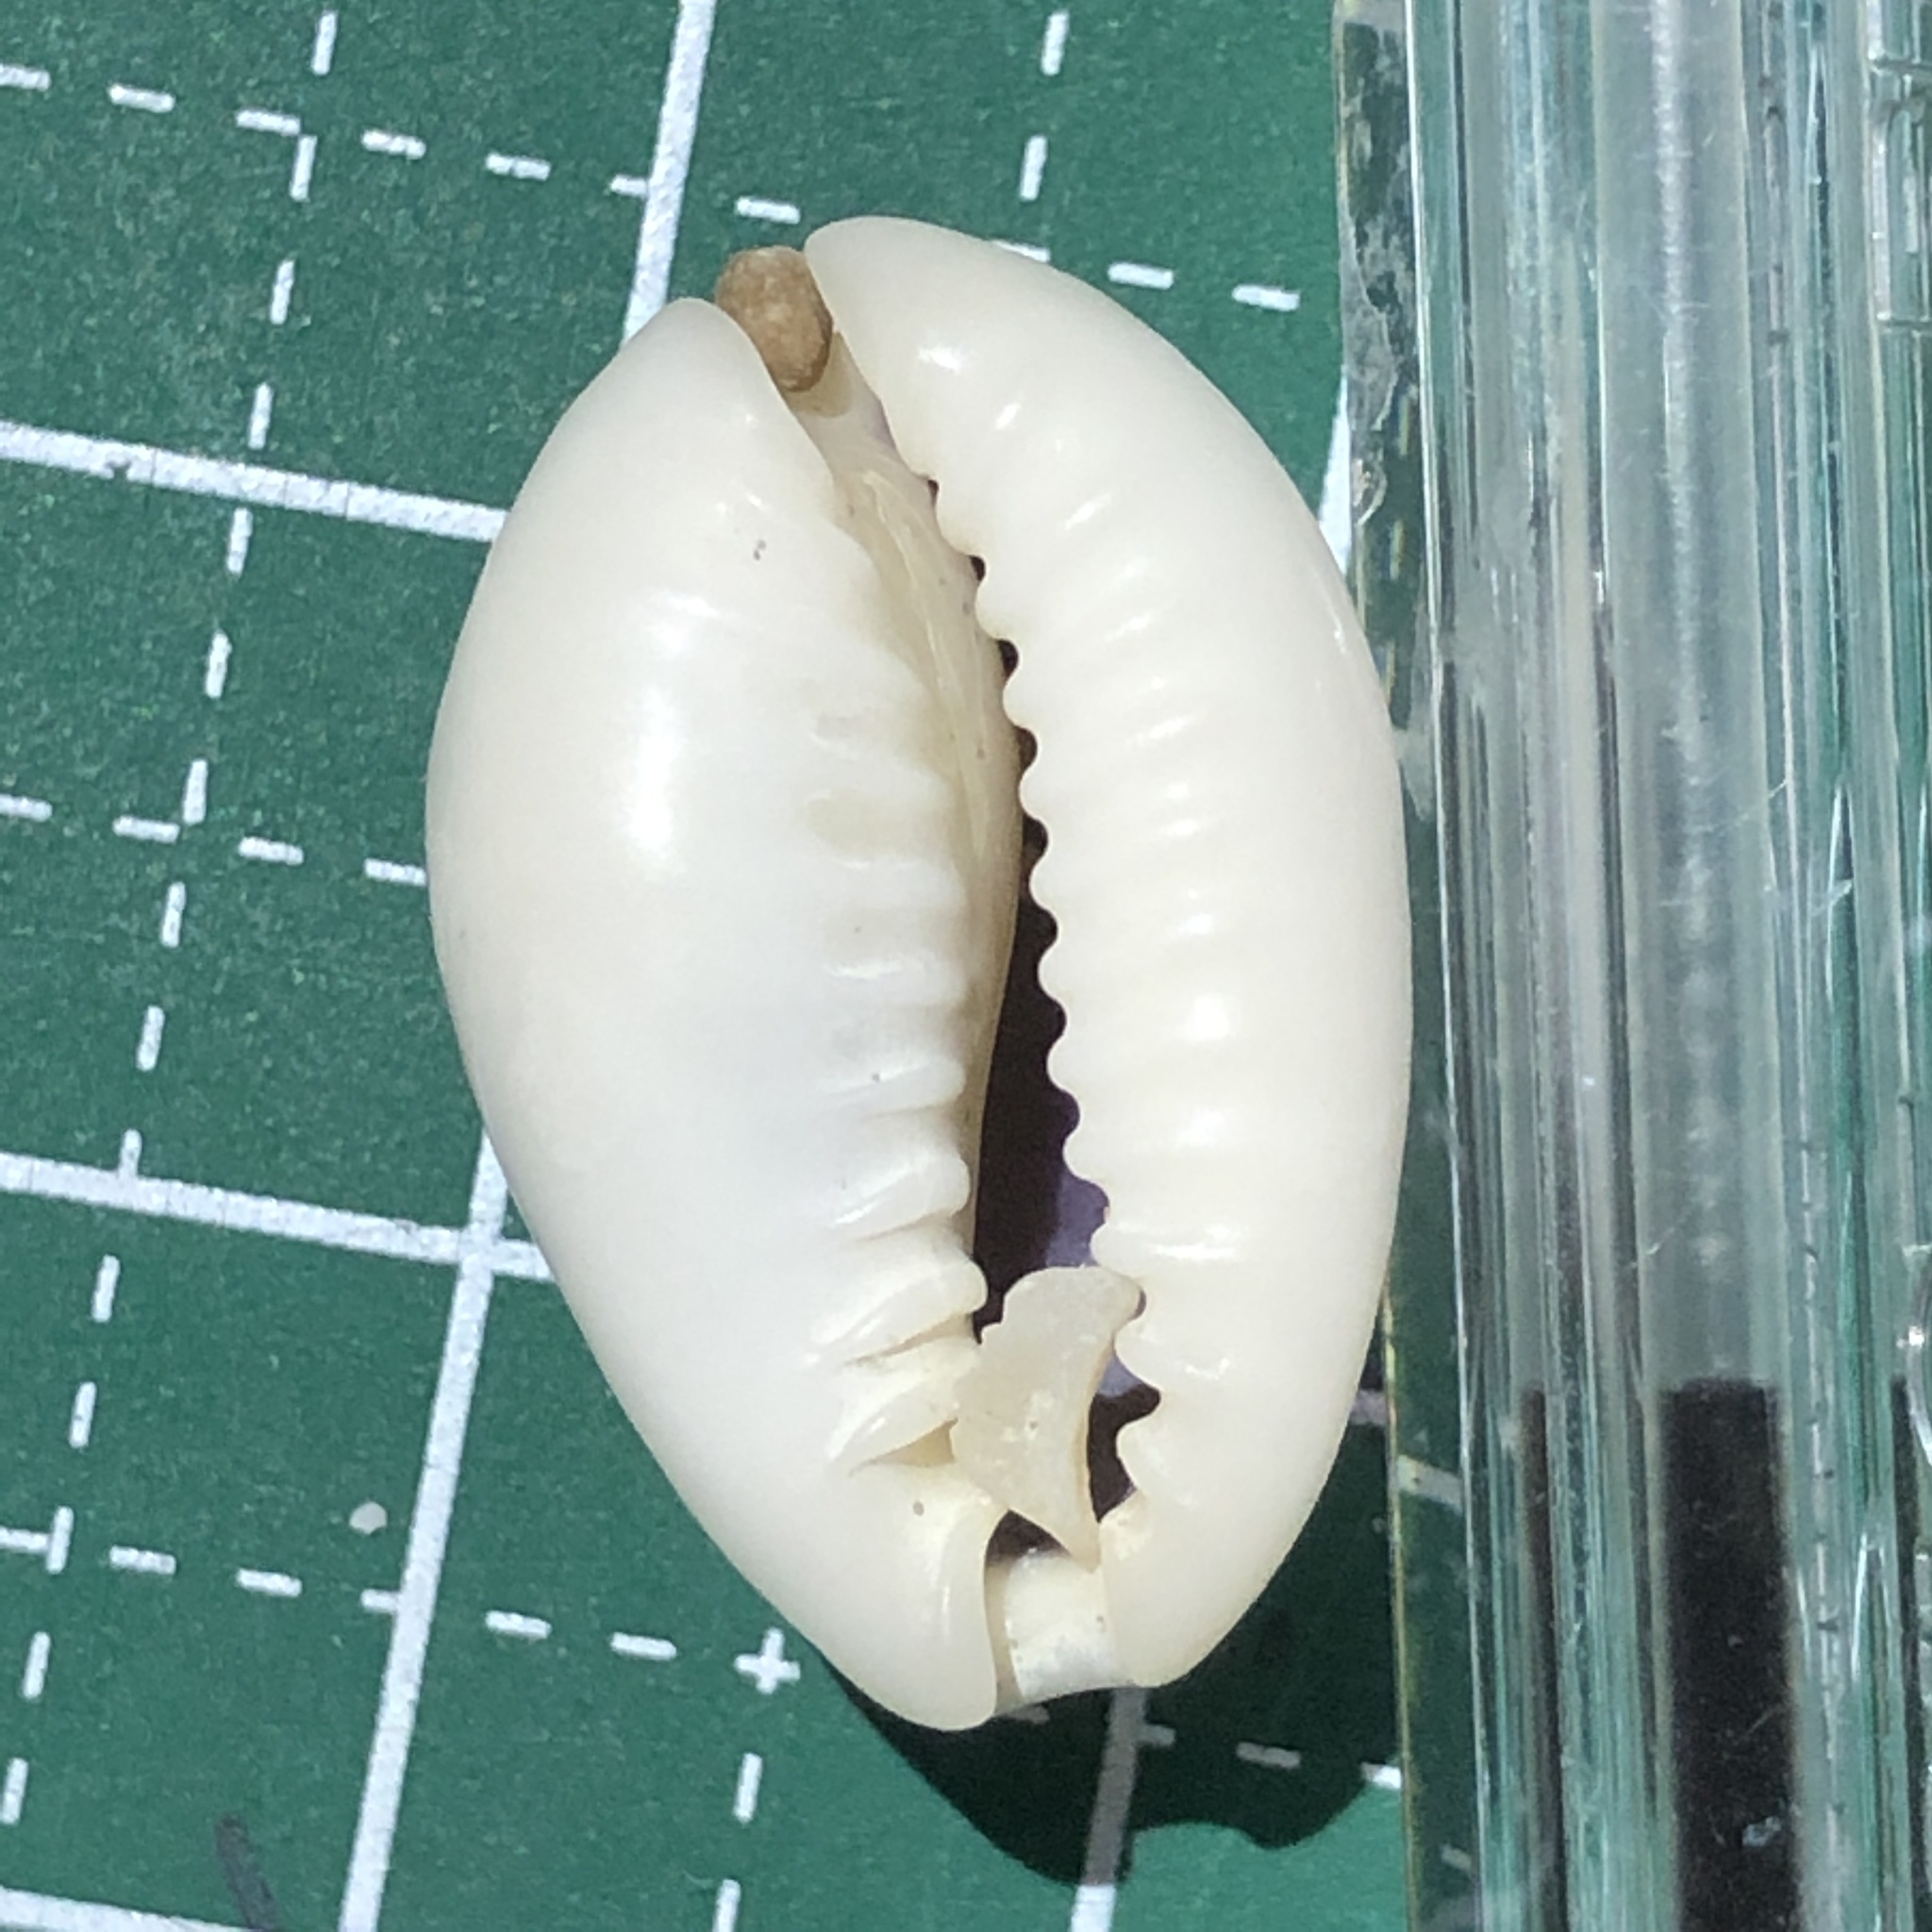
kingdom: Animalia
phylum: Mollusca
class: Gastropoda
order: Littorinimorpha
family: Cypraeidae
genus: Monetaria
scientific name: Monetaria annulus
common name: Ring cowrie
